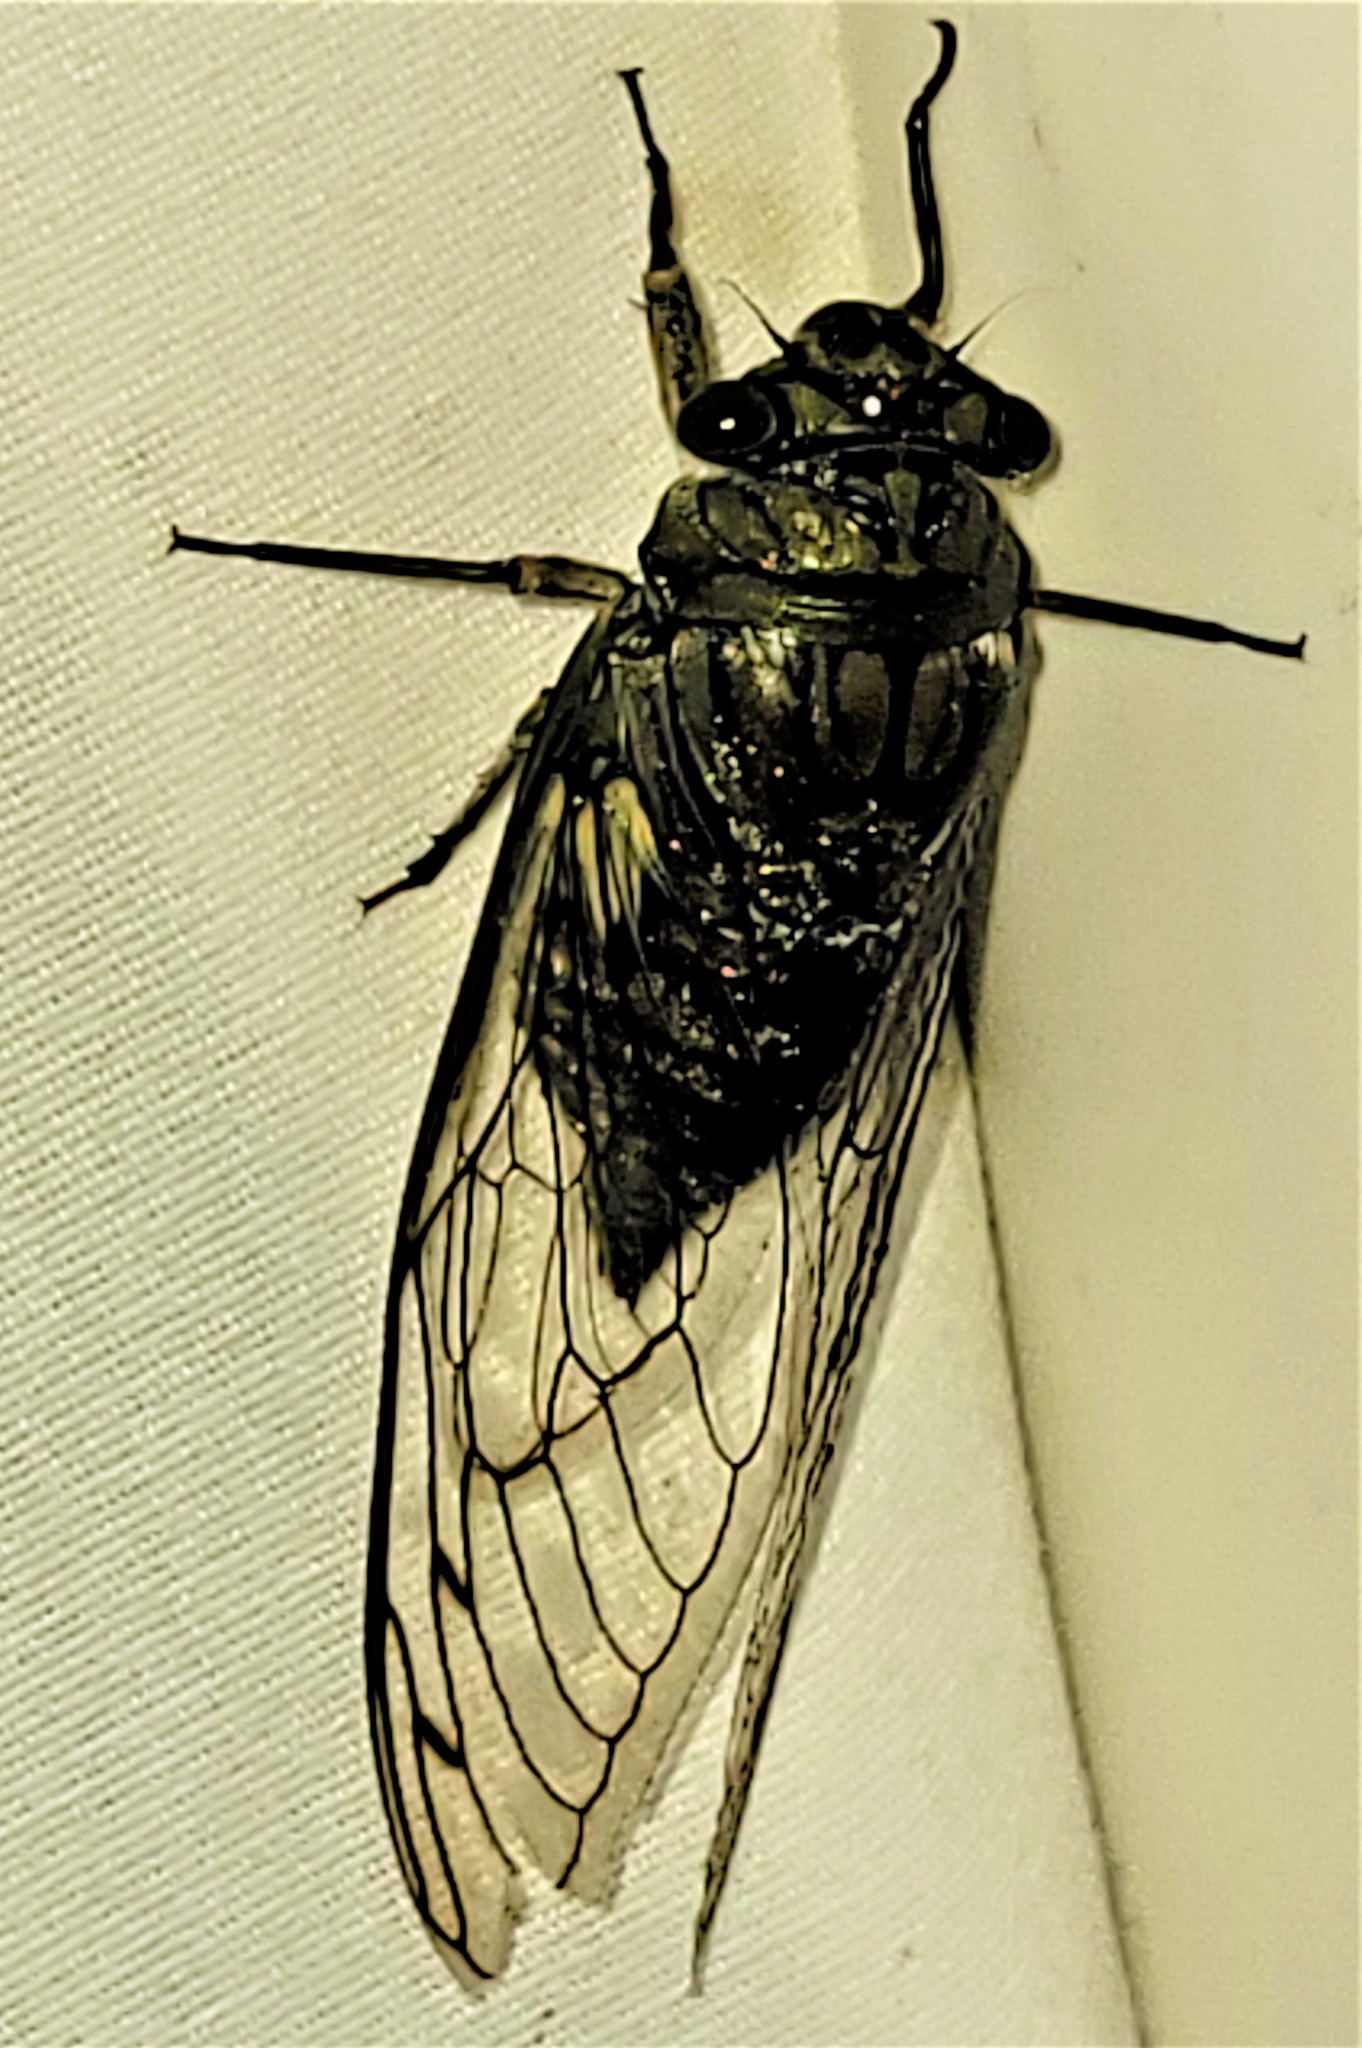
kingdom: Animalia
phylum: Arthropoda
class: Insecta
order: Hemiptera
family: Cicadidae
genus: Quesada
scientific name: Quesada gigas
